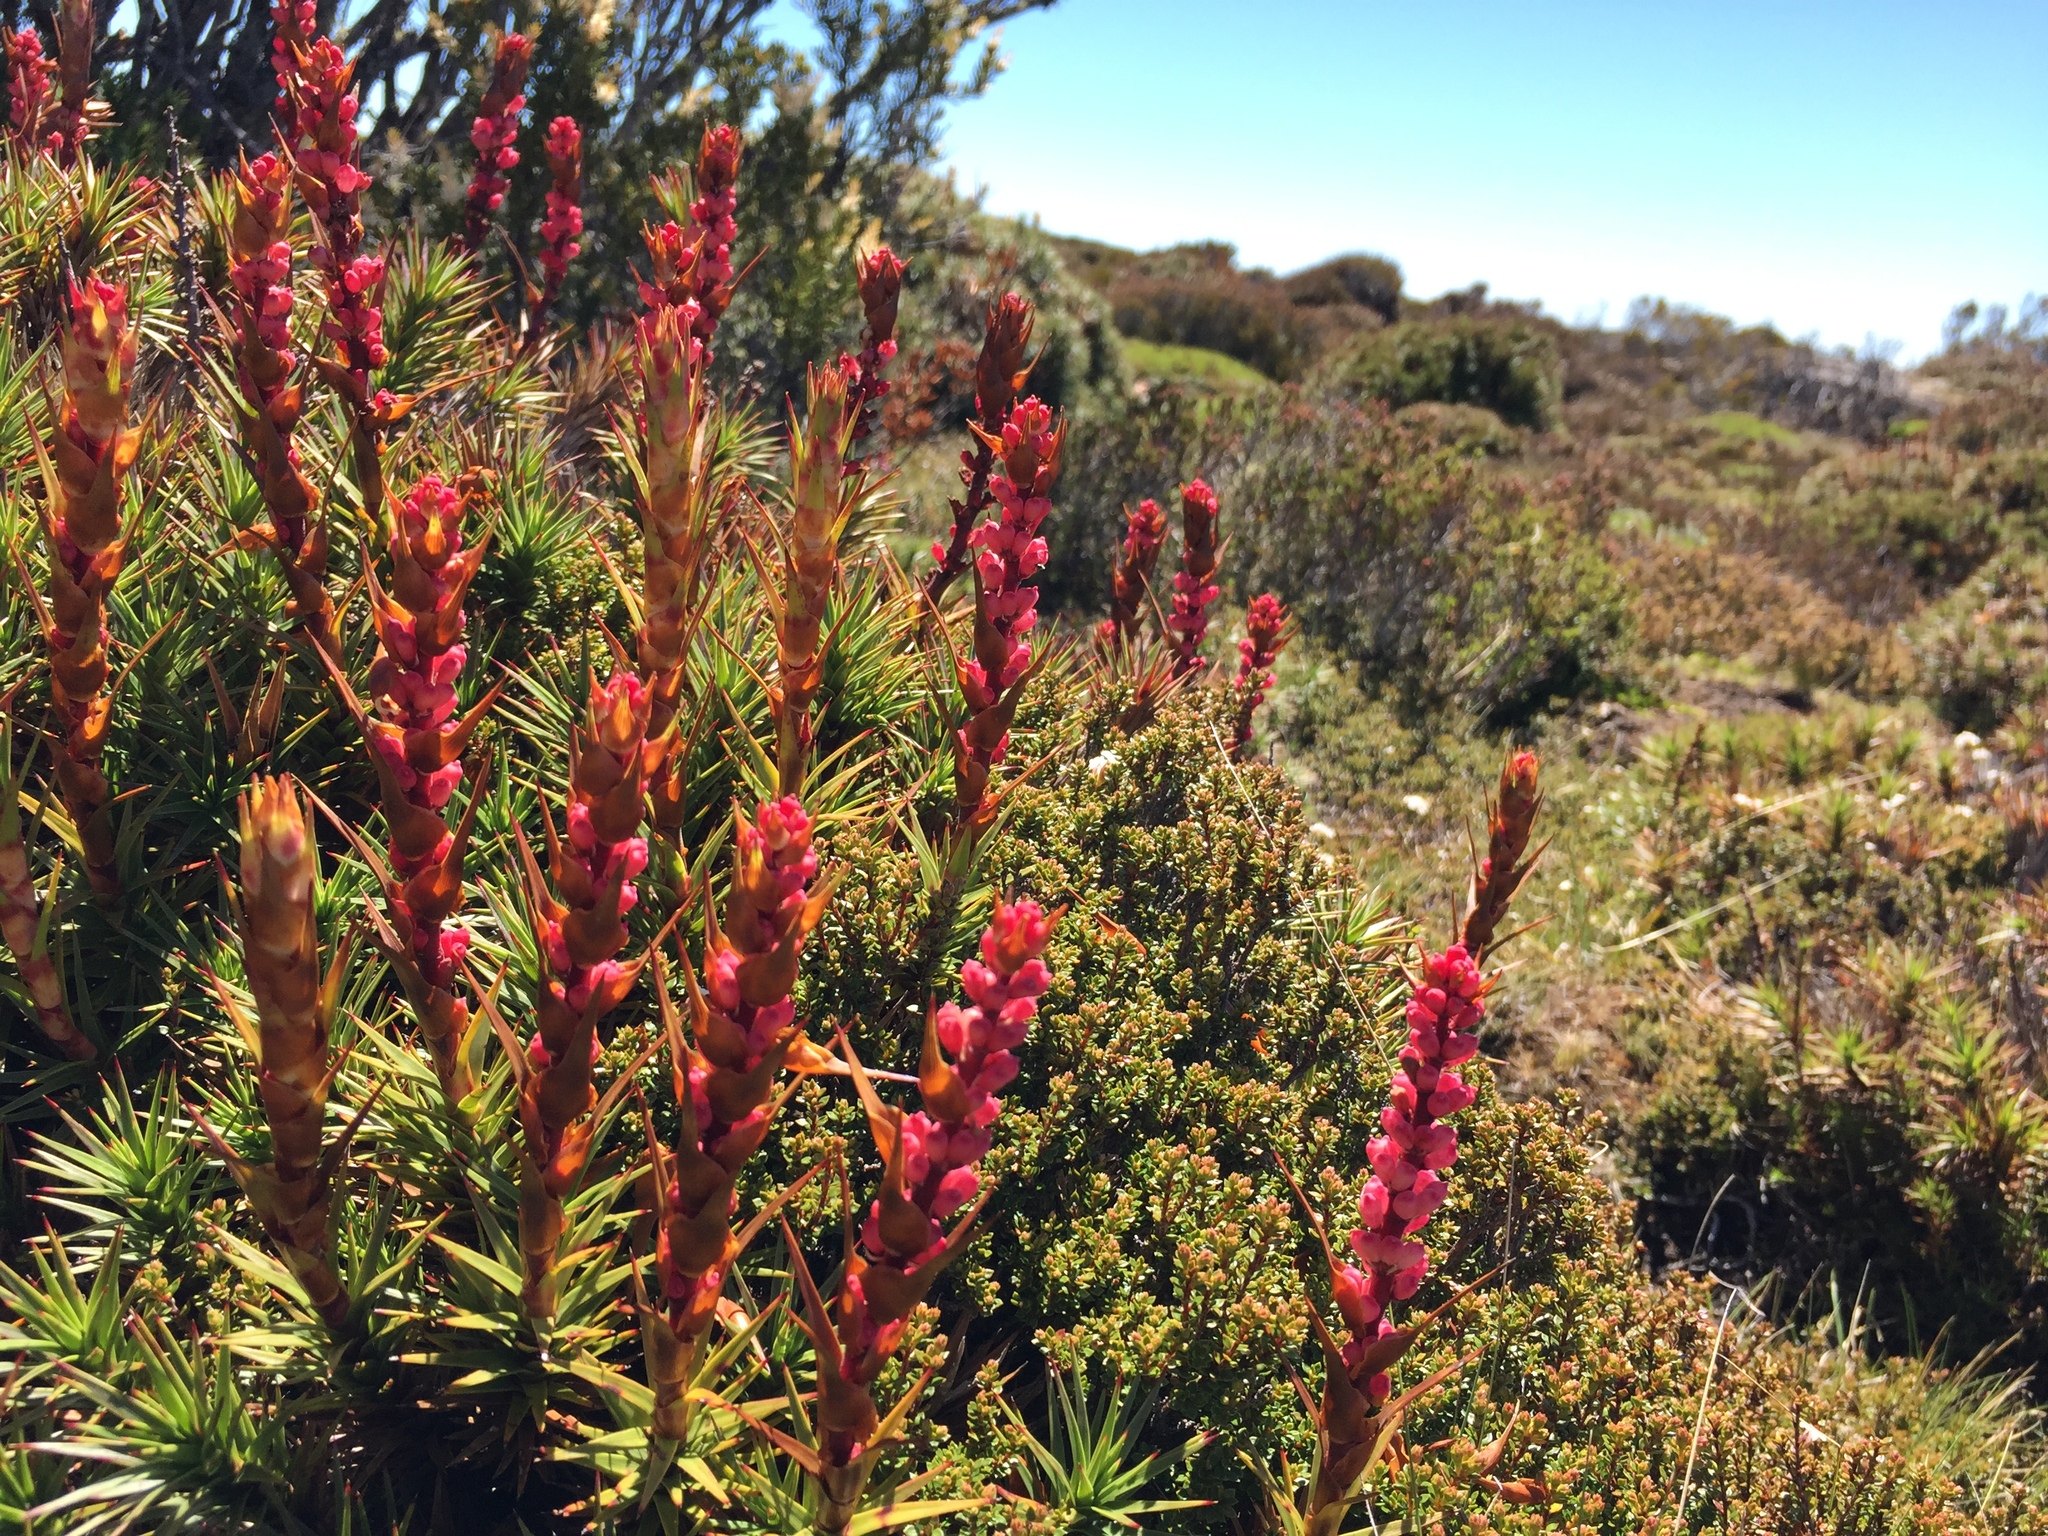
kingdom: Plantae
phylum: Tracheophyta
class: Magnoliopsida
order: Ericales
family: Ericaceae
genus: Dracophyllum
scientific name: Dracophyllum persistentifolium
